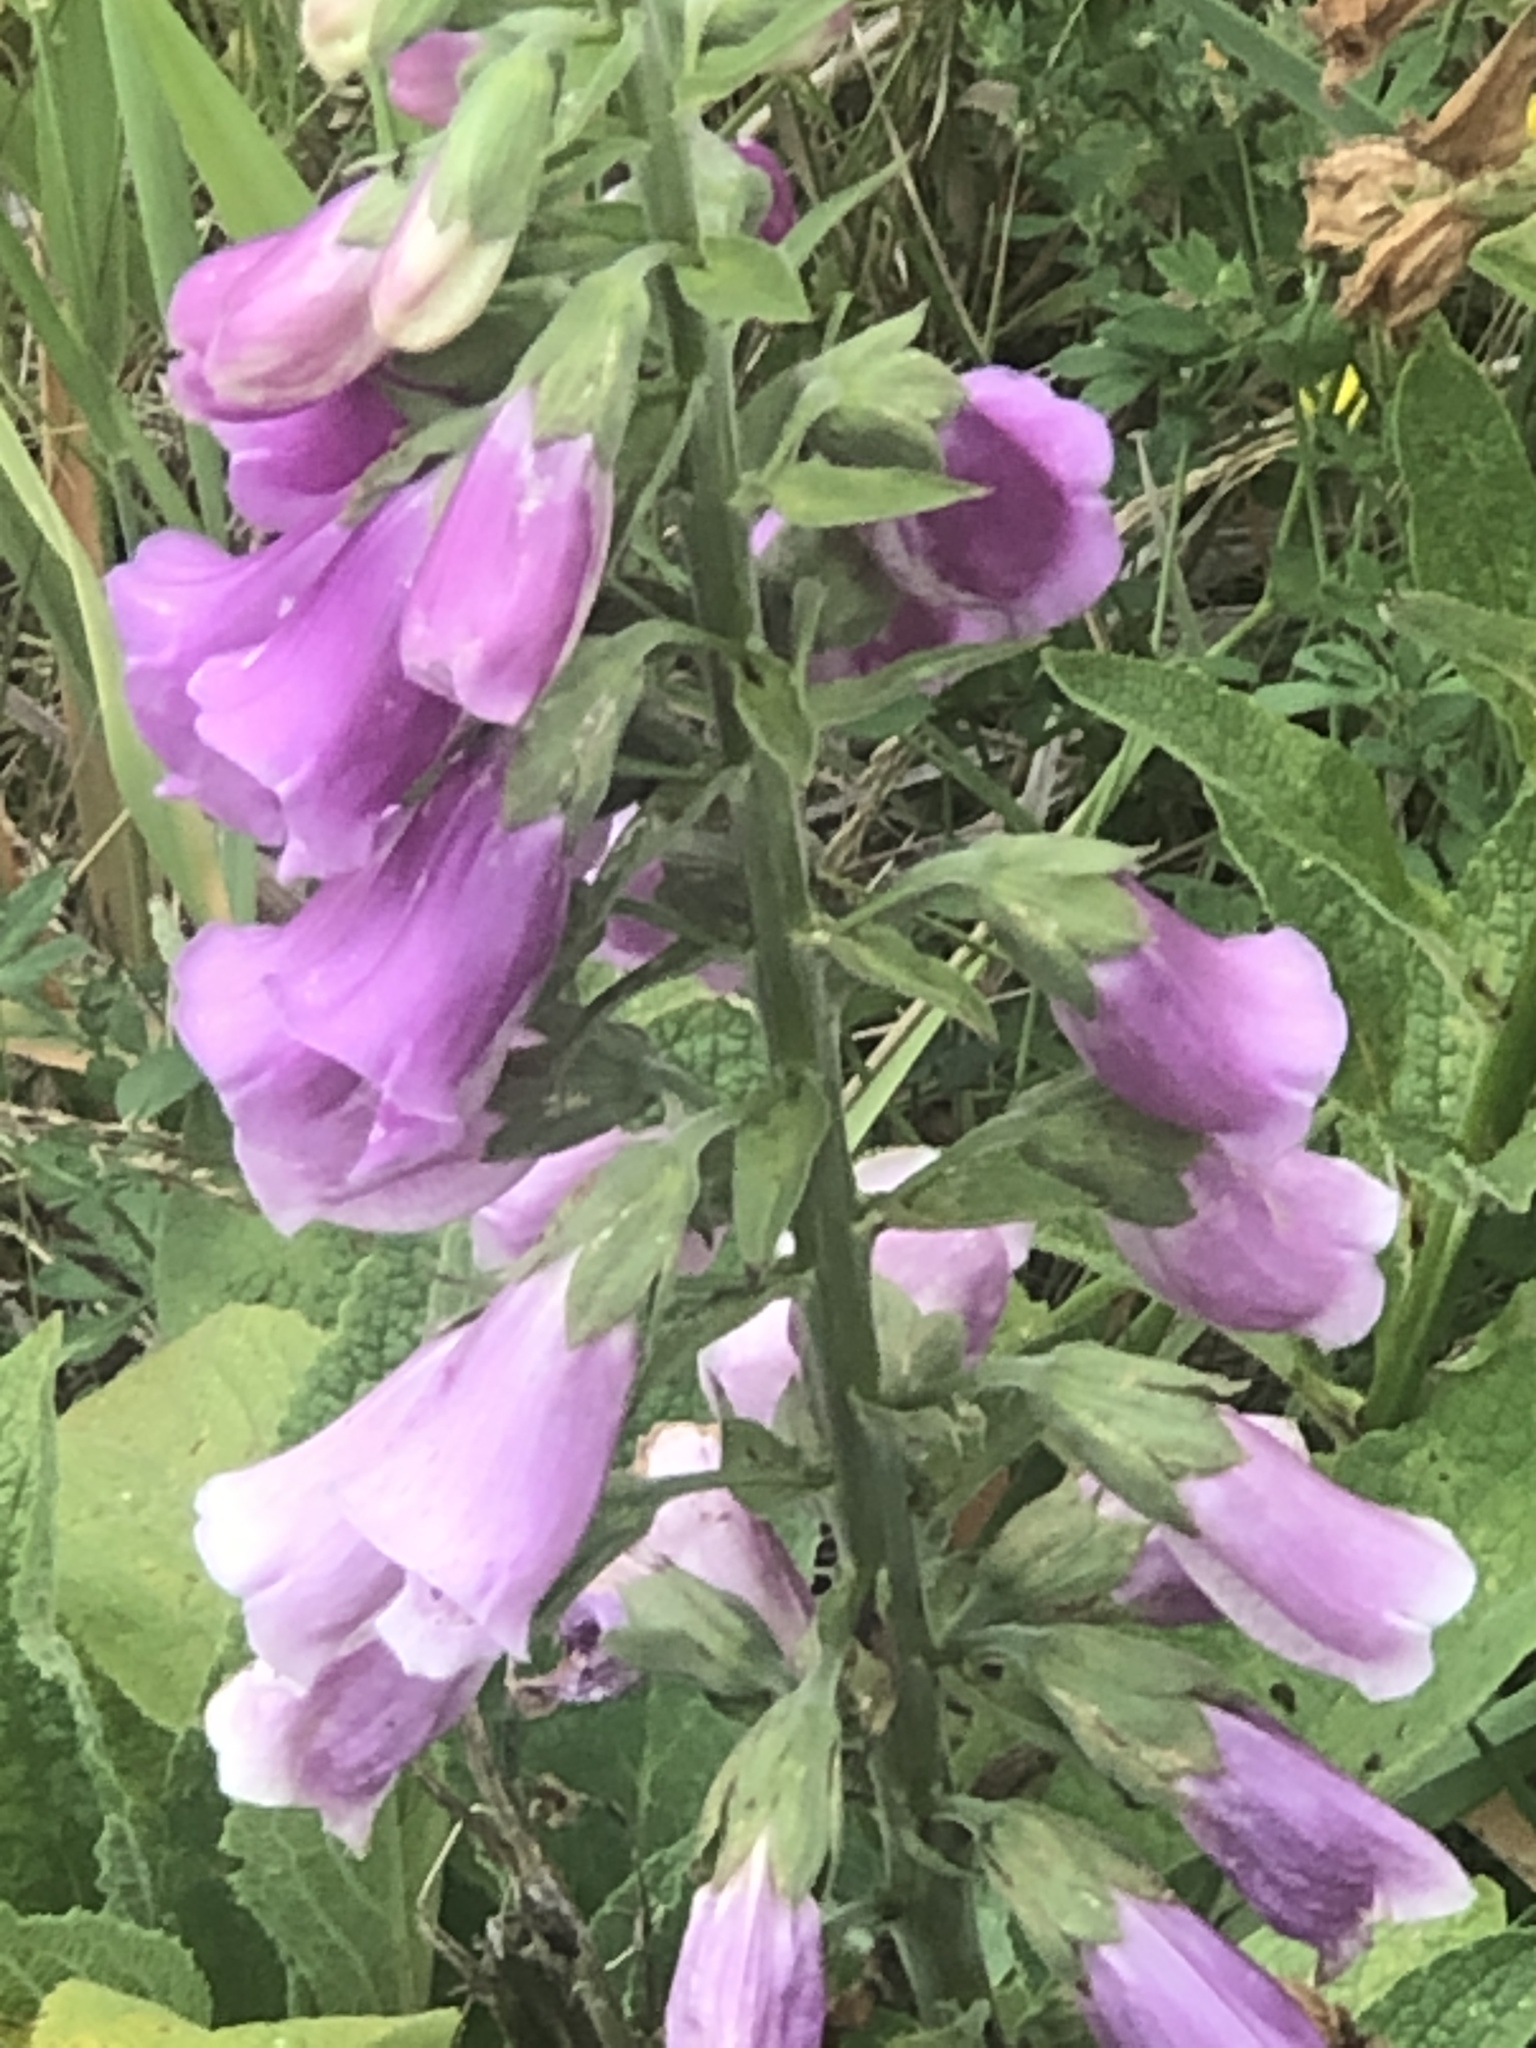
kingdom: Plantae
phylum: Tracheophyta
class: Magnoliopsida
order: Lamiales
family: Plantaginaceae
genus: Digitalis
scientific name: Digitalis purpurea
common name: Foxglove
